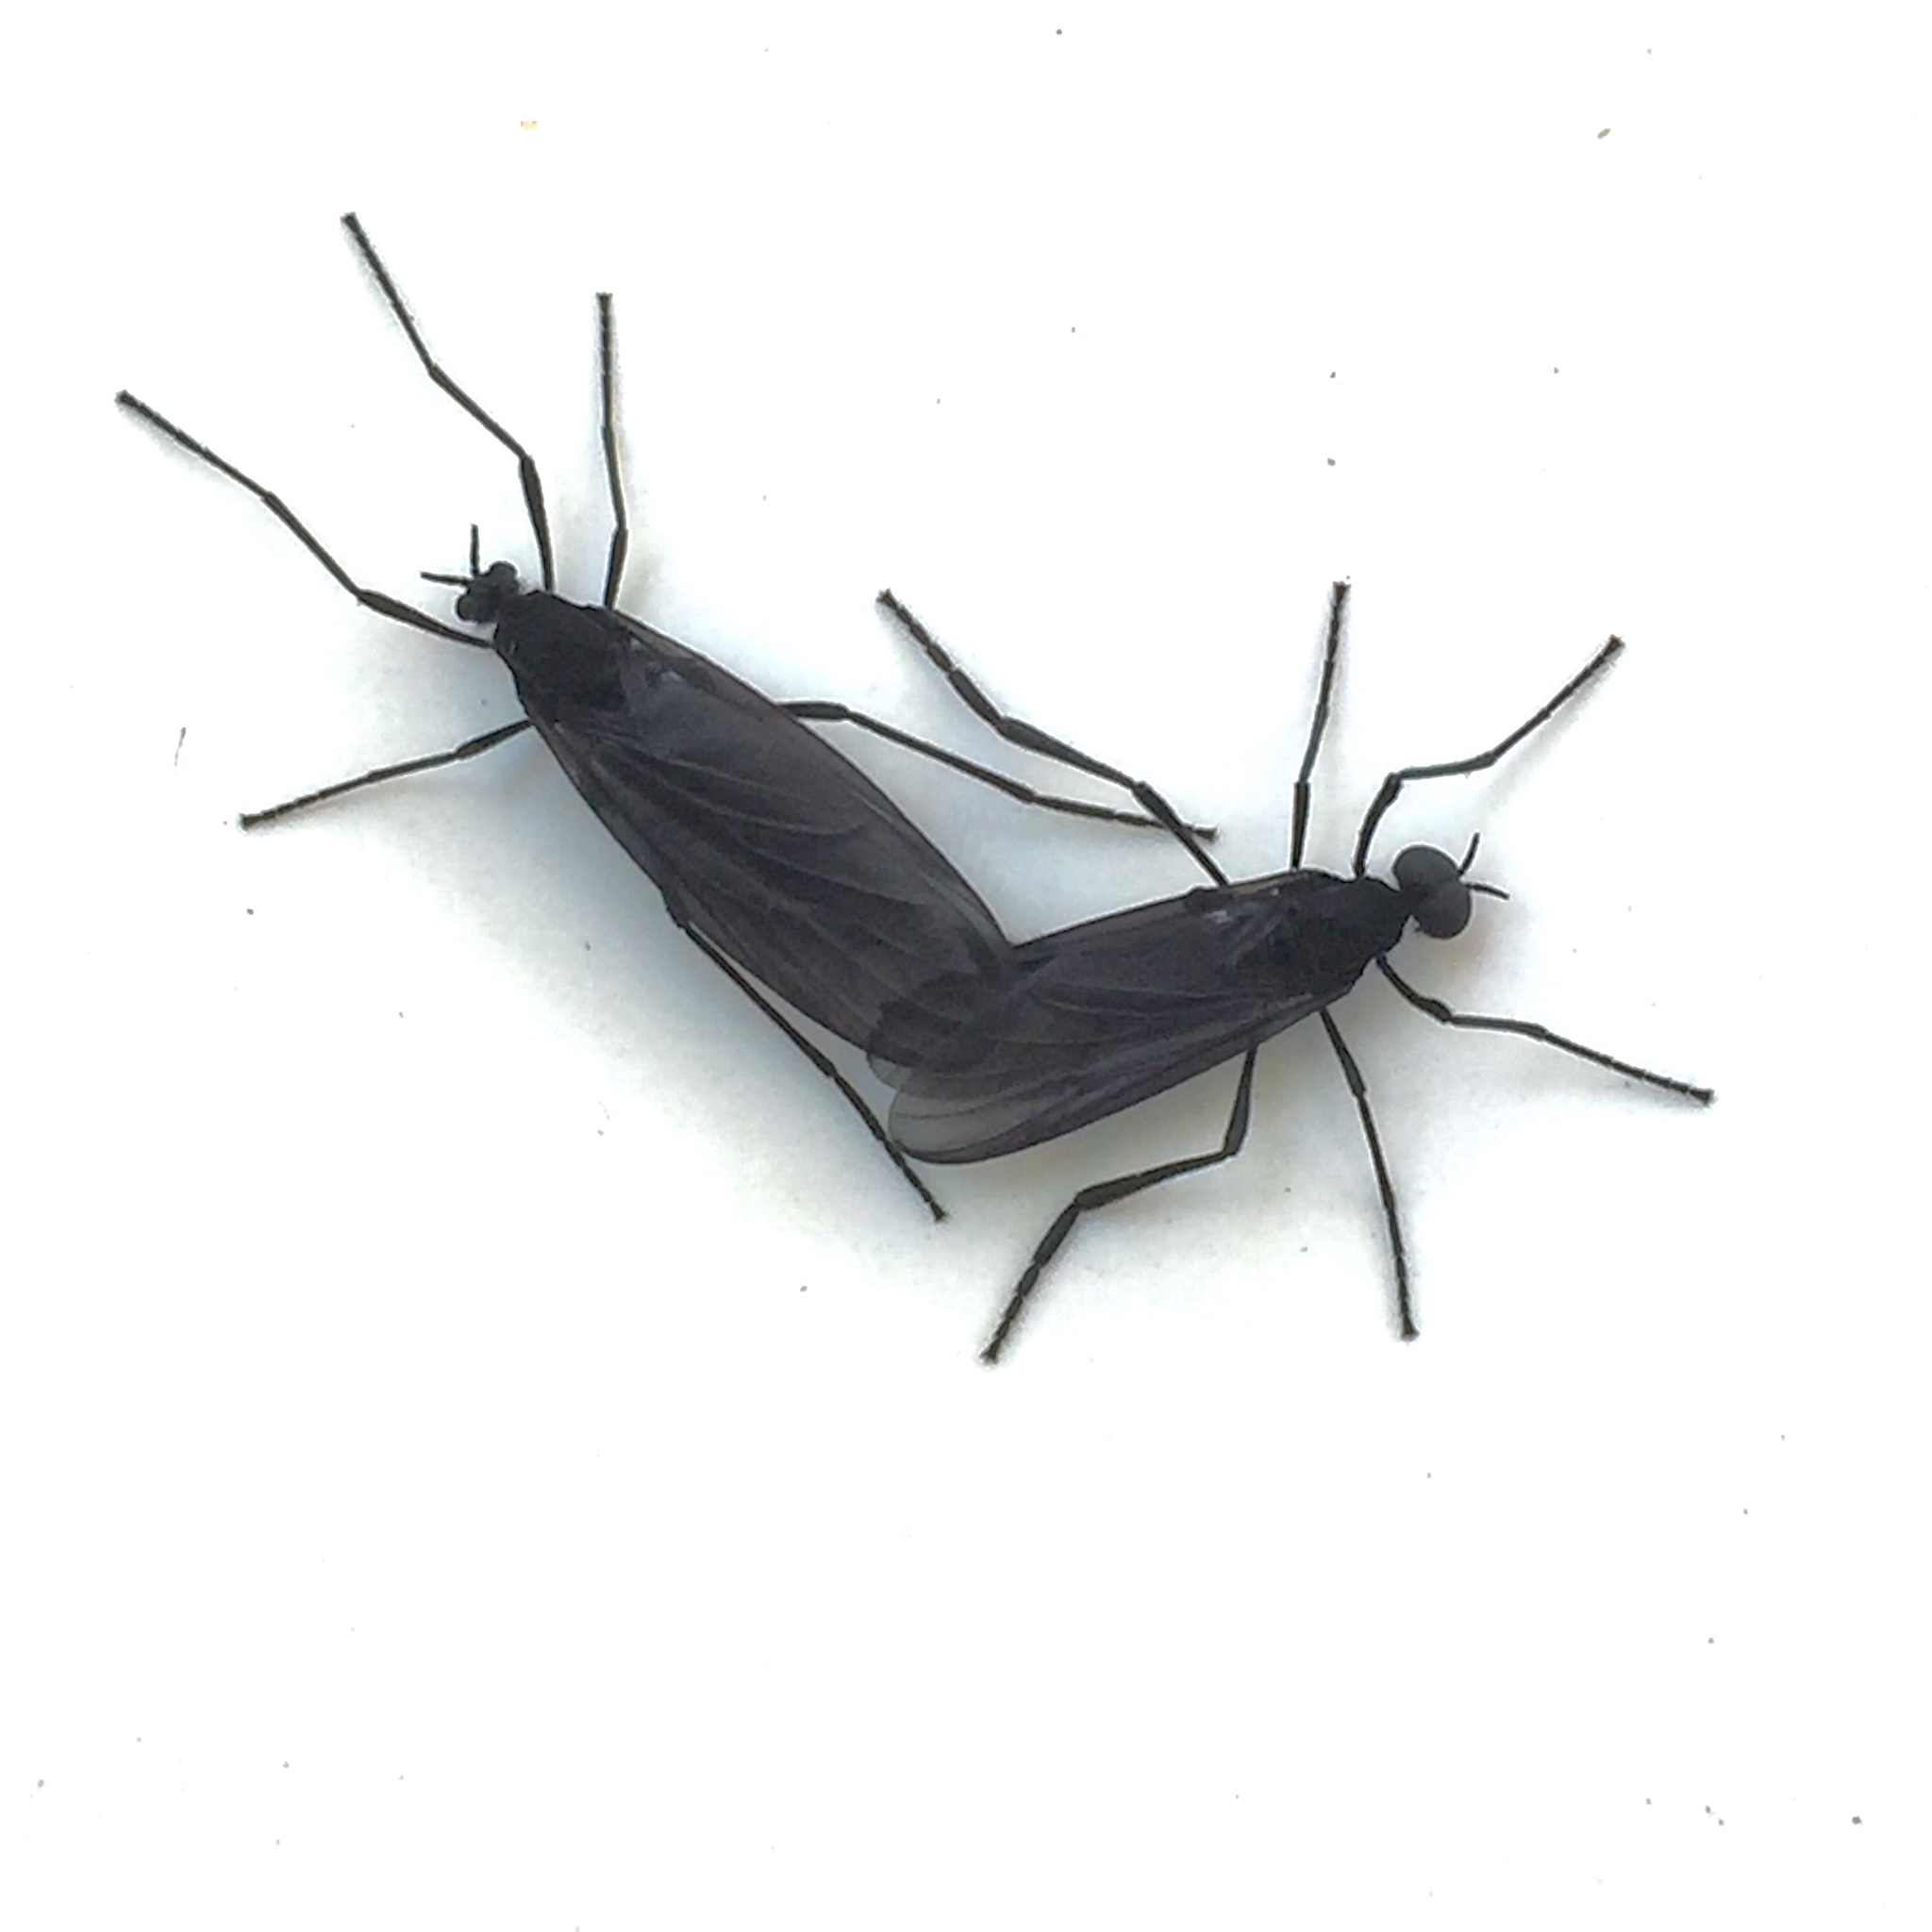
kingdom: Animalia
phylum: Arthropoda
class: Insecta
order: Diptera
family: Bibionidae
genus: Penthetria
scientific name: Penthetria heteroptera
